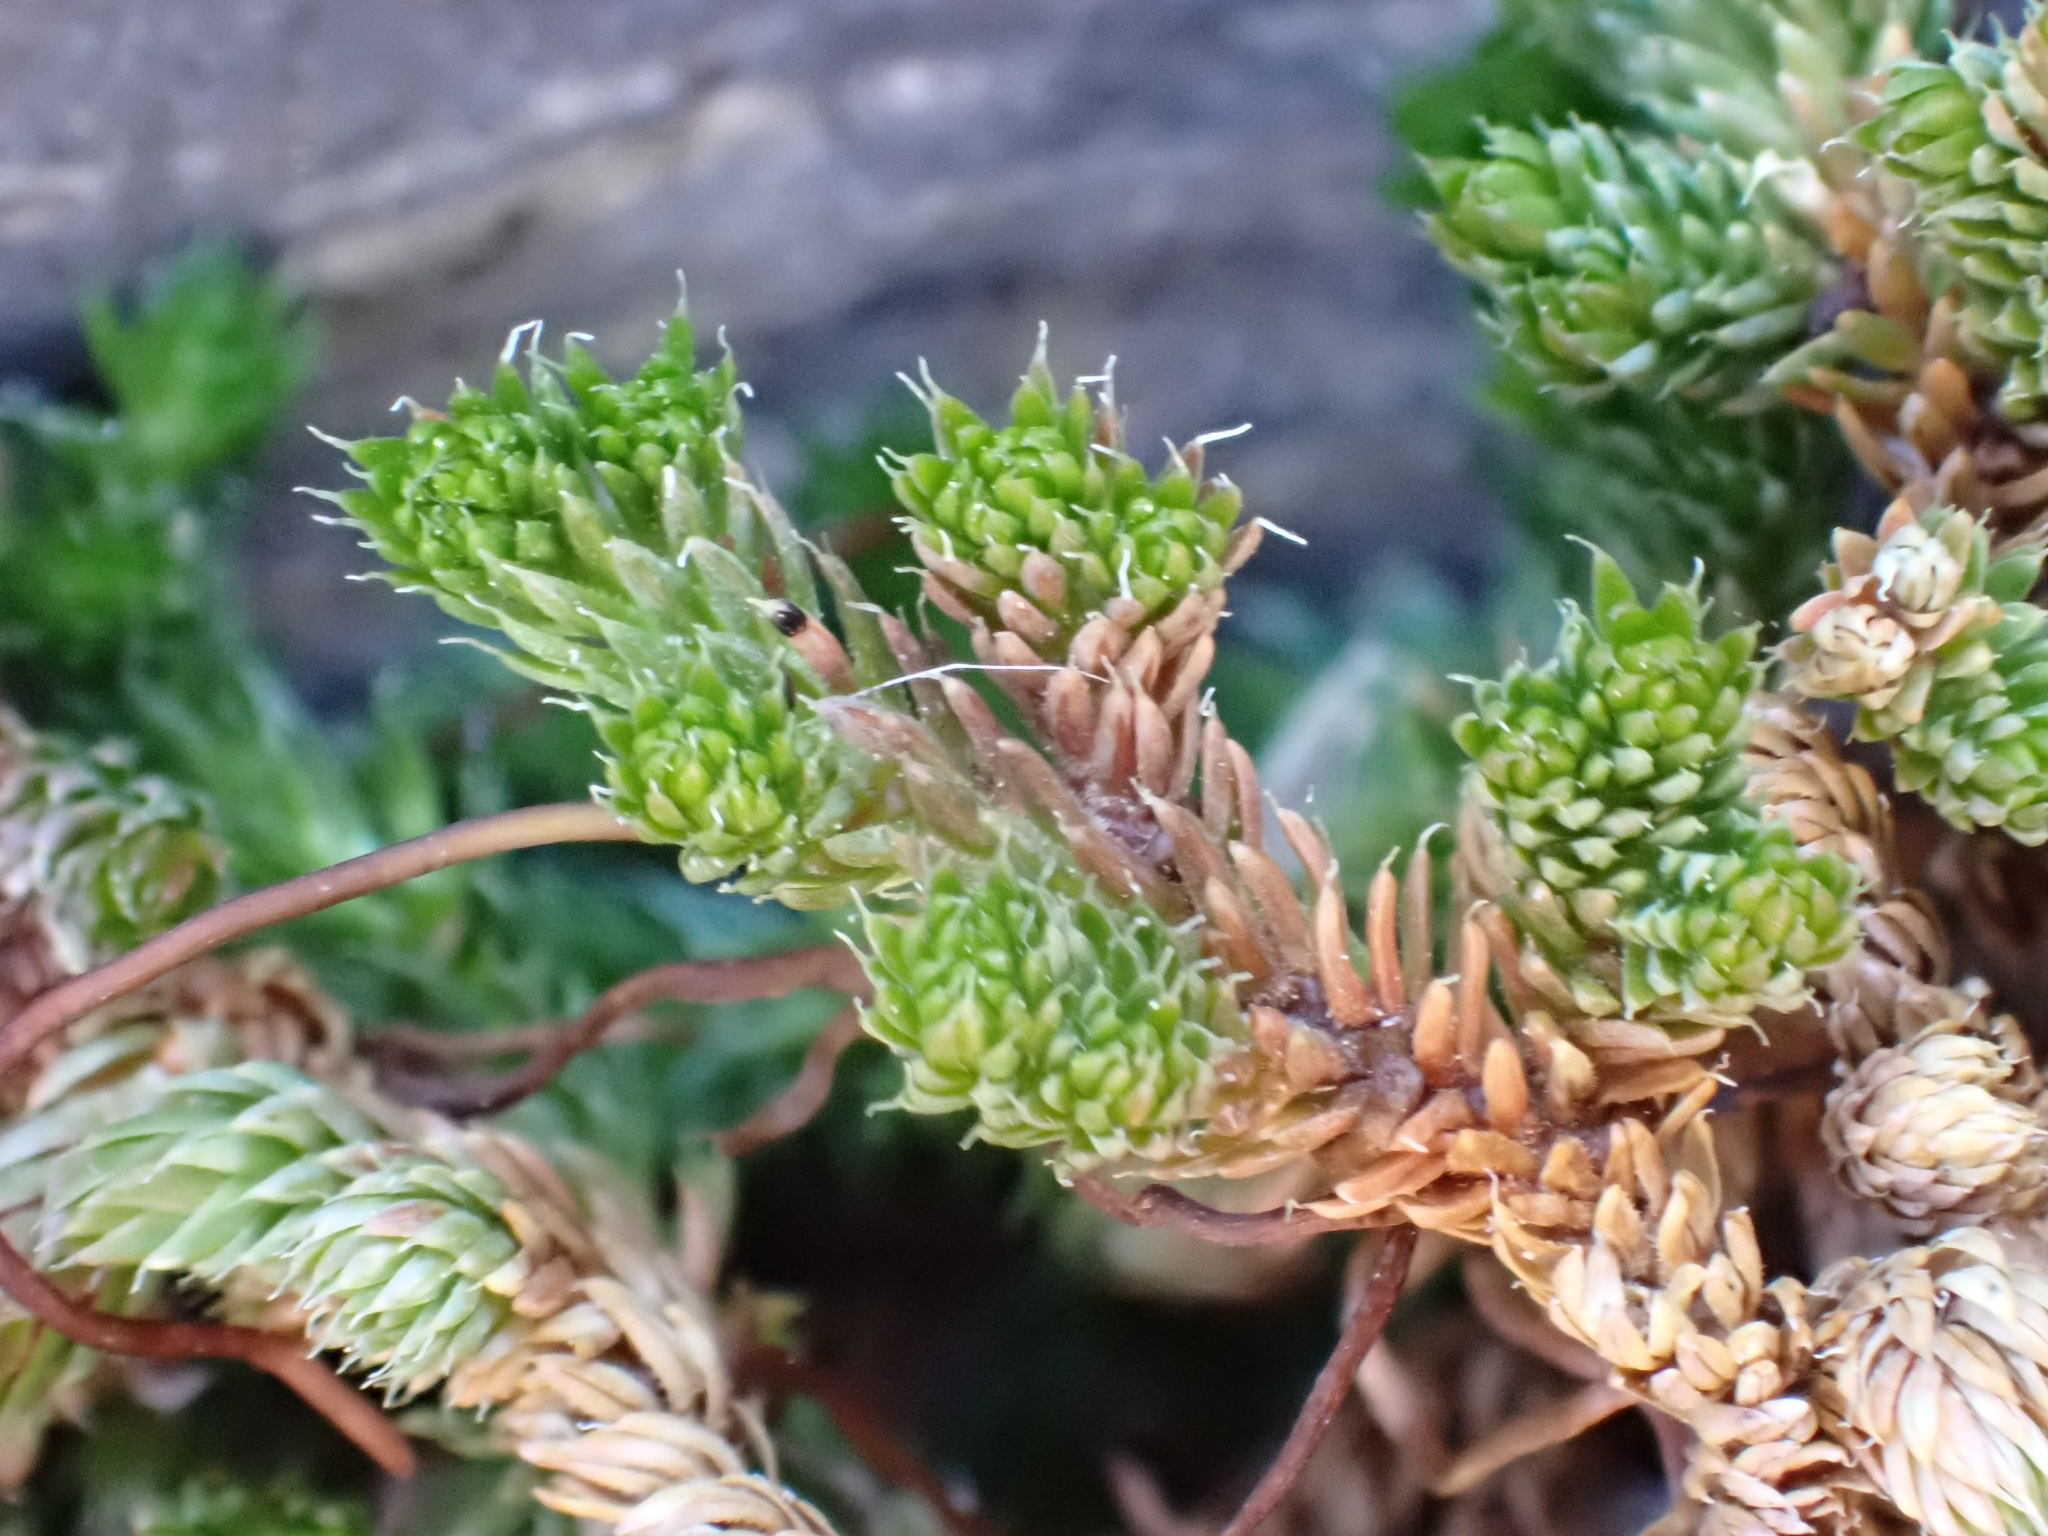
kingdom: Plantae
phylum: Tracheophyta
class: Lycopodiopsida
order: Selaginellales
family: Selaginellaceae
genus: Selaginella
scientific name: Selaginella watsonii
